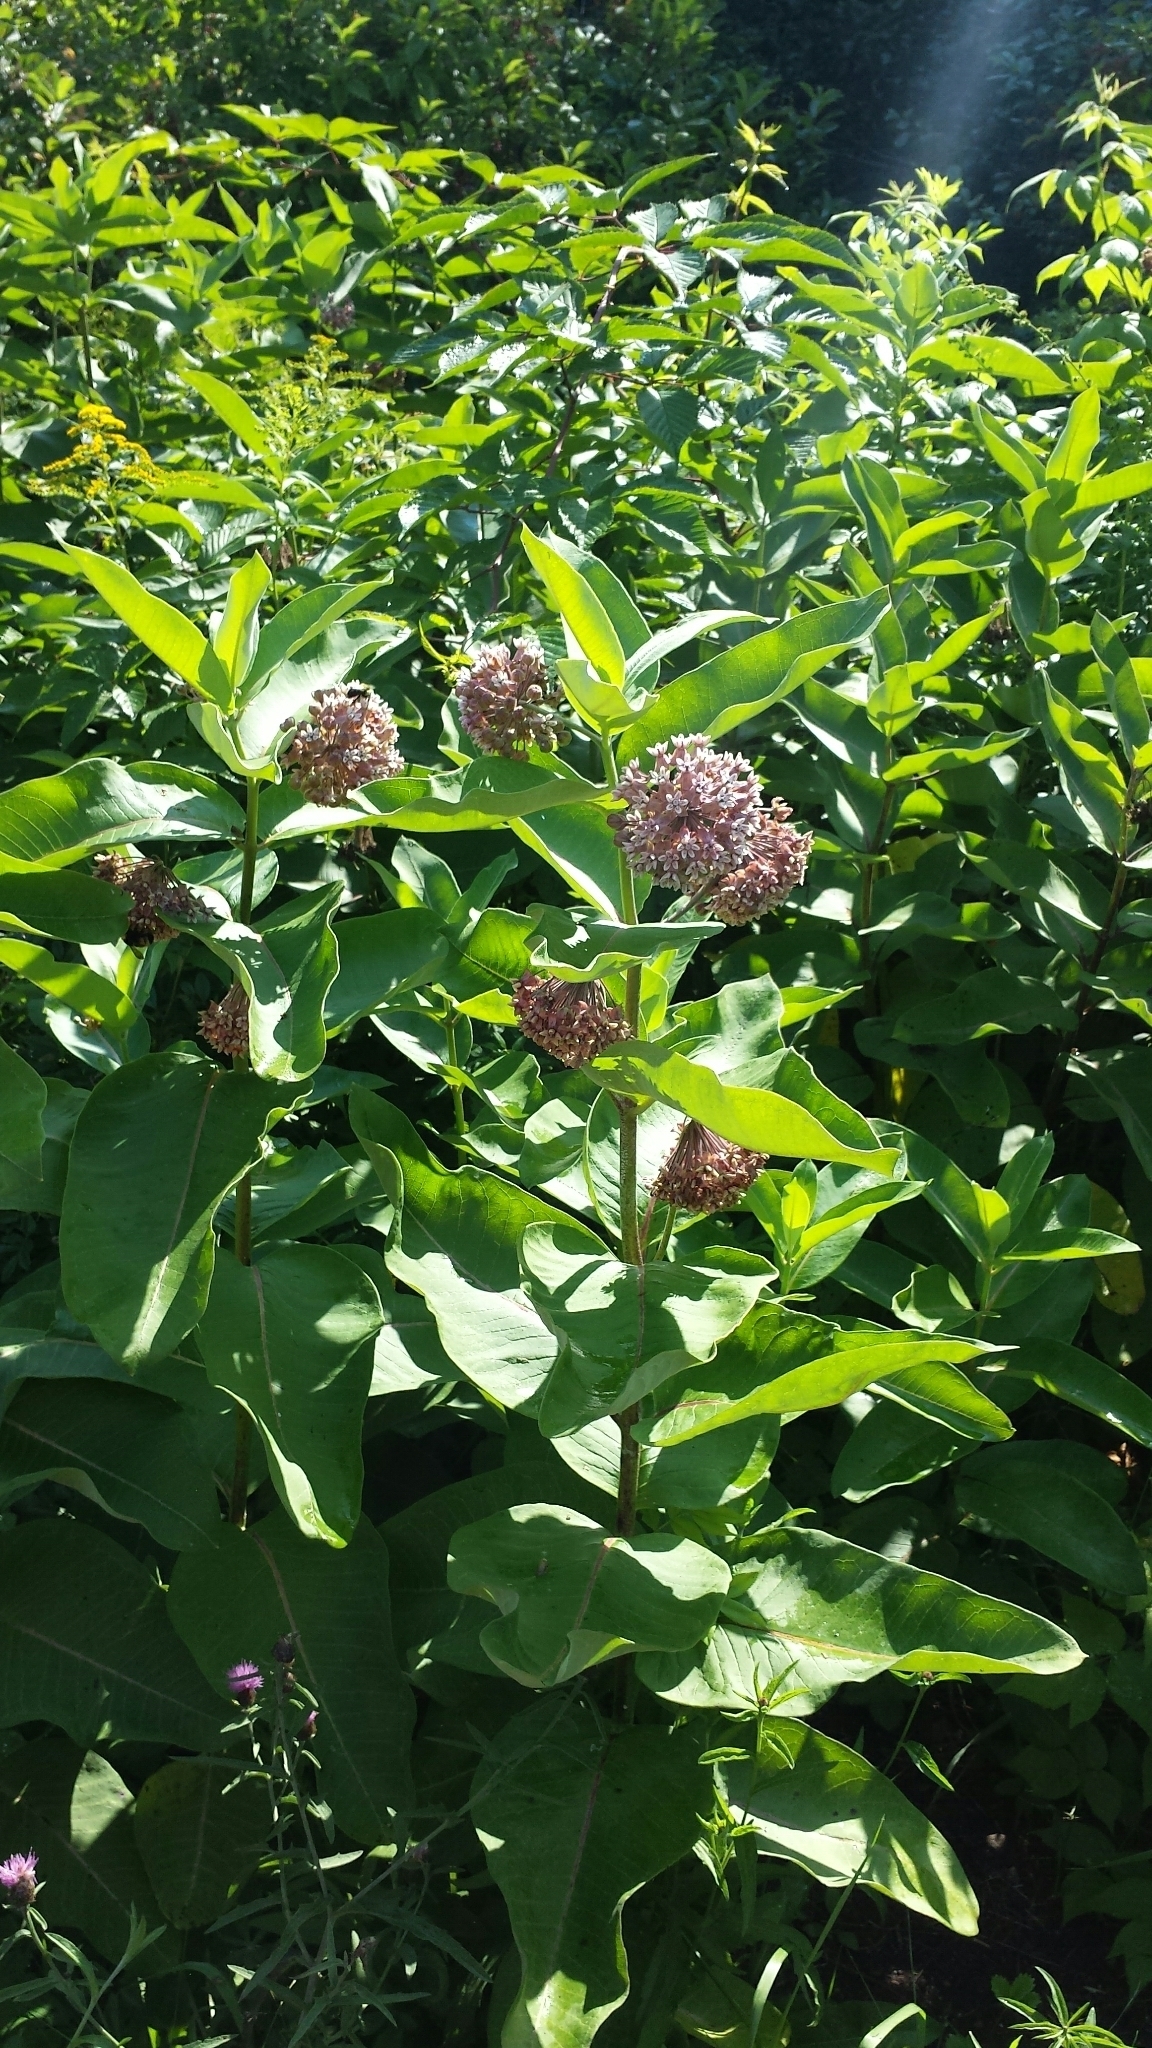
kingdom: Plantae
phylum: Tracheophyta
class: Magnoliopsida
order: Gentianales
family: Apocynaceae
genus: Asclepias
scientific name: Asclepias syriaca
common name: Common milkweed
